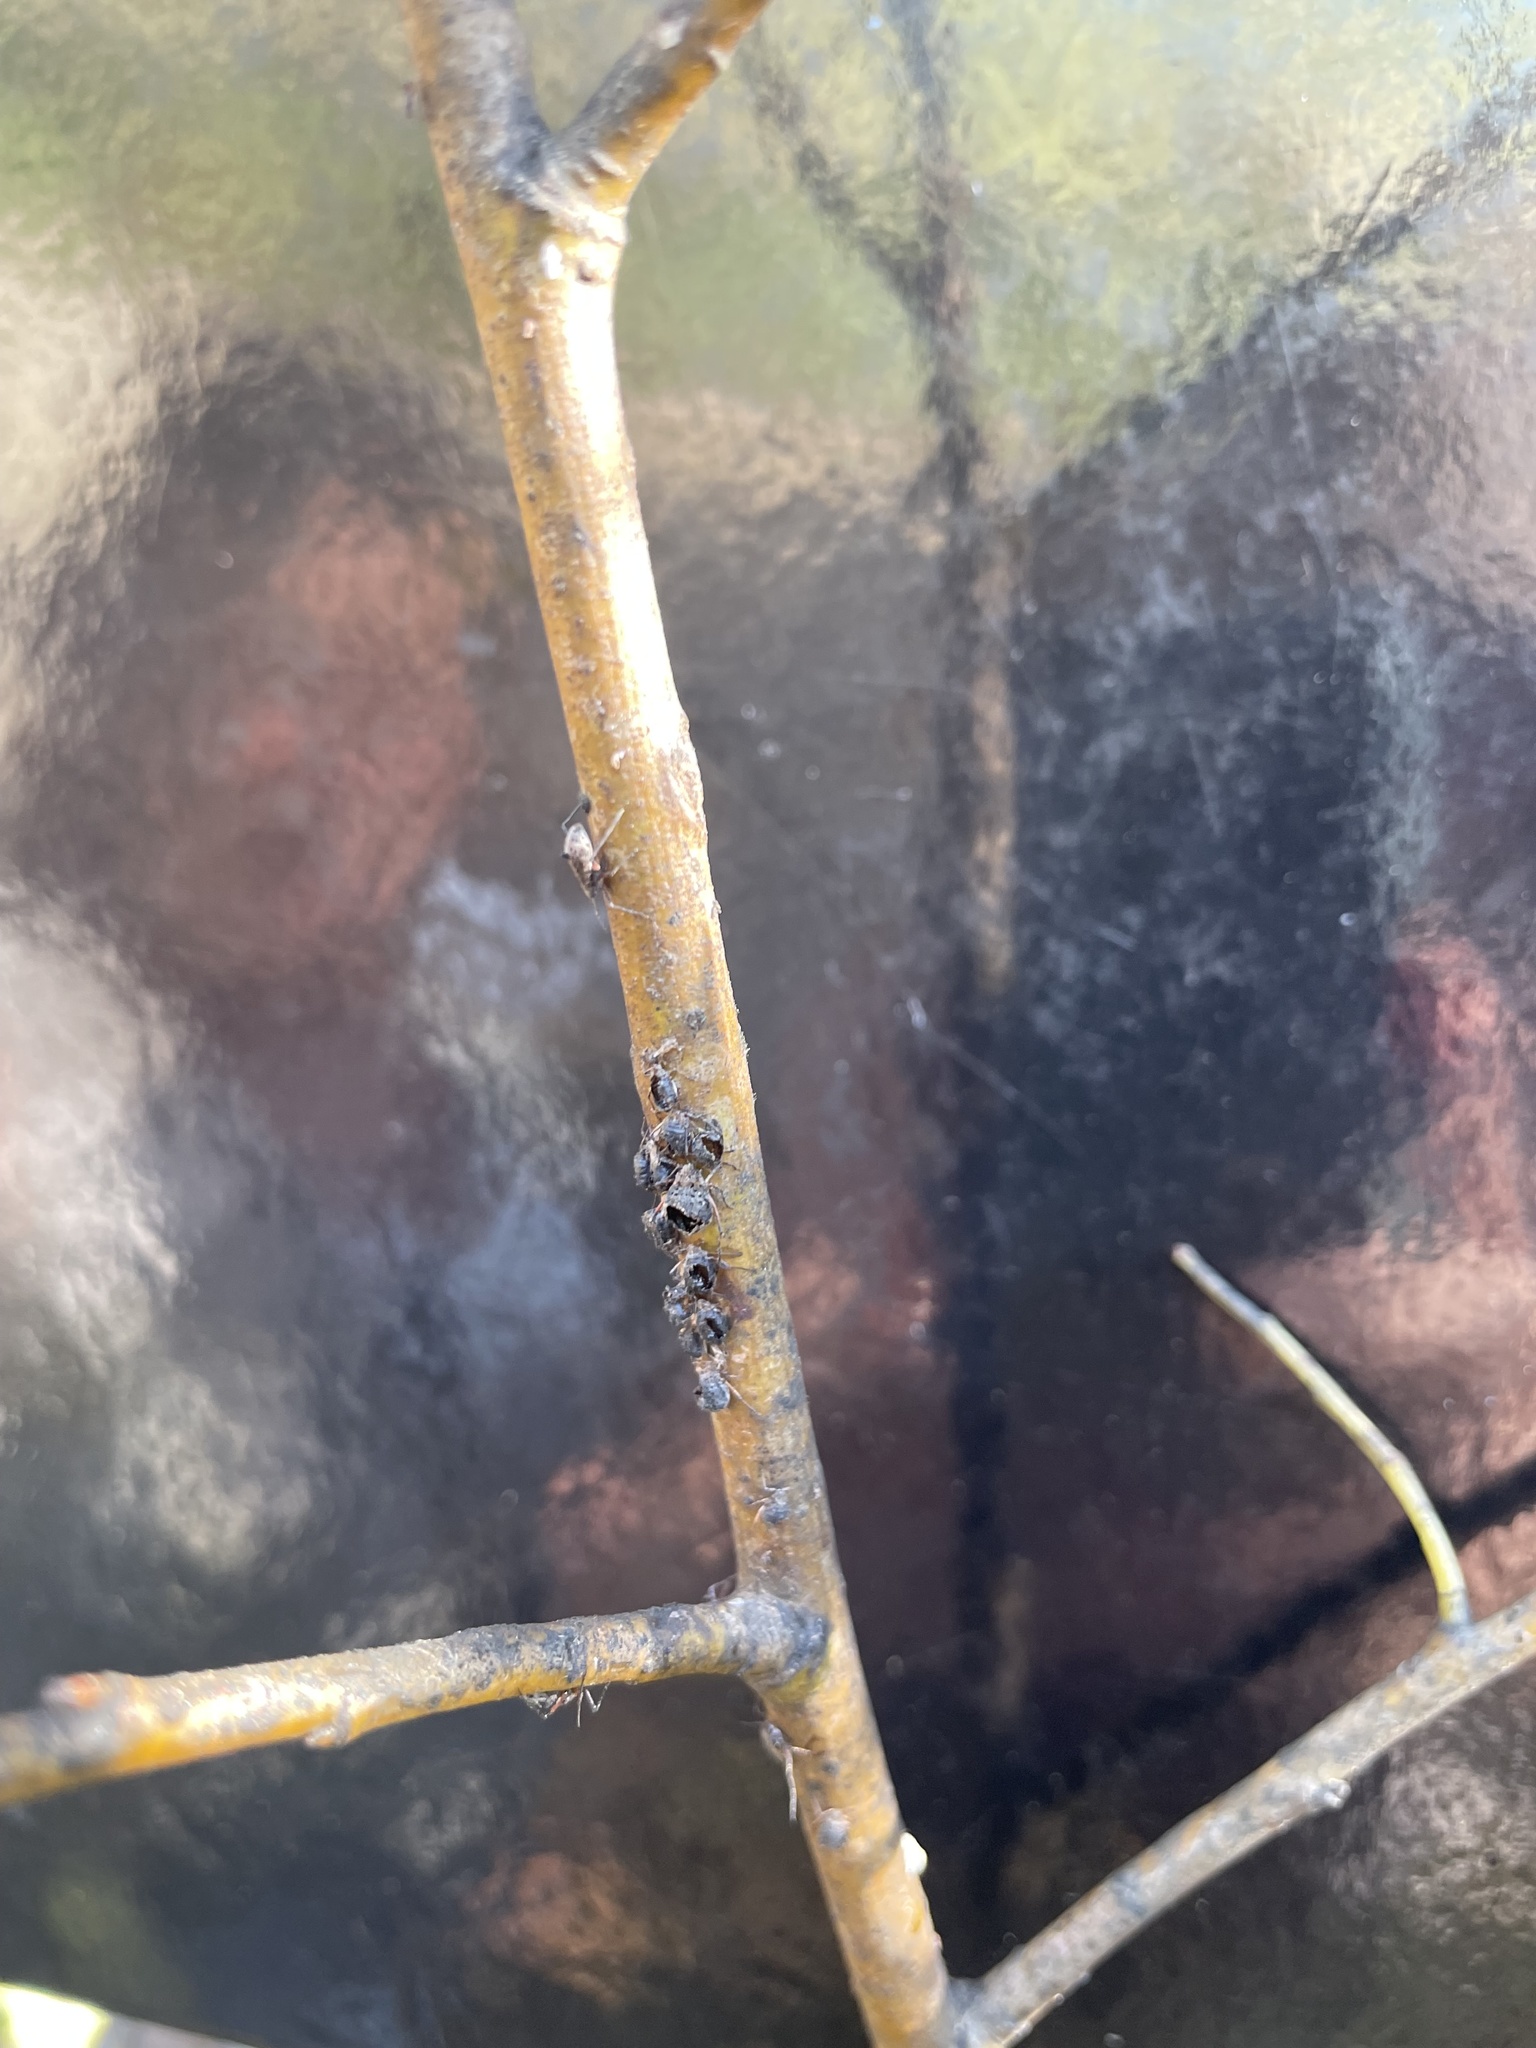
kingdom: Animalia
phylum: Arthropoda
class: Insecta
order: Hymenoptera
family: Braconidae
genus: Pauesia
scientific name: Pauesia nigrovaria
